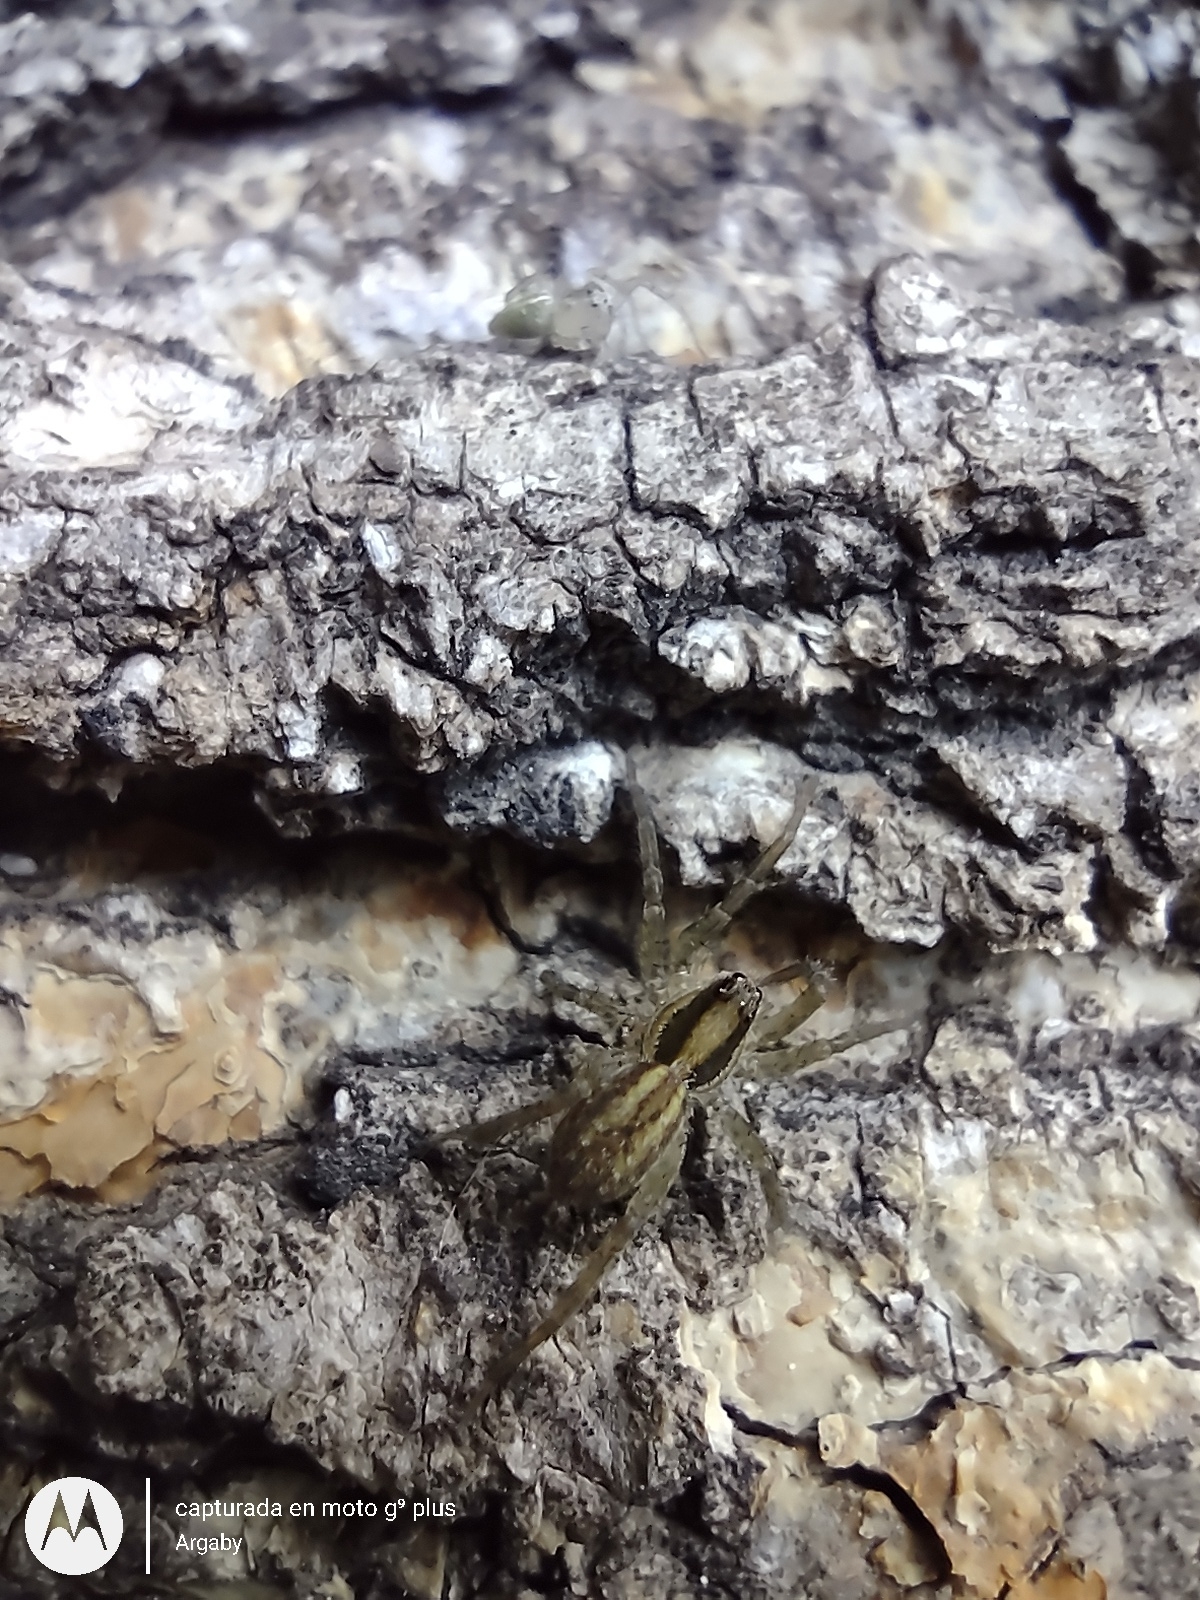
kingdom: Animalia
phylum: Arthropoda
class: Arachnida
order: Araneae
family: Lycosidae
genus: Alopecosa
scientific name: Alopecosa moesta
